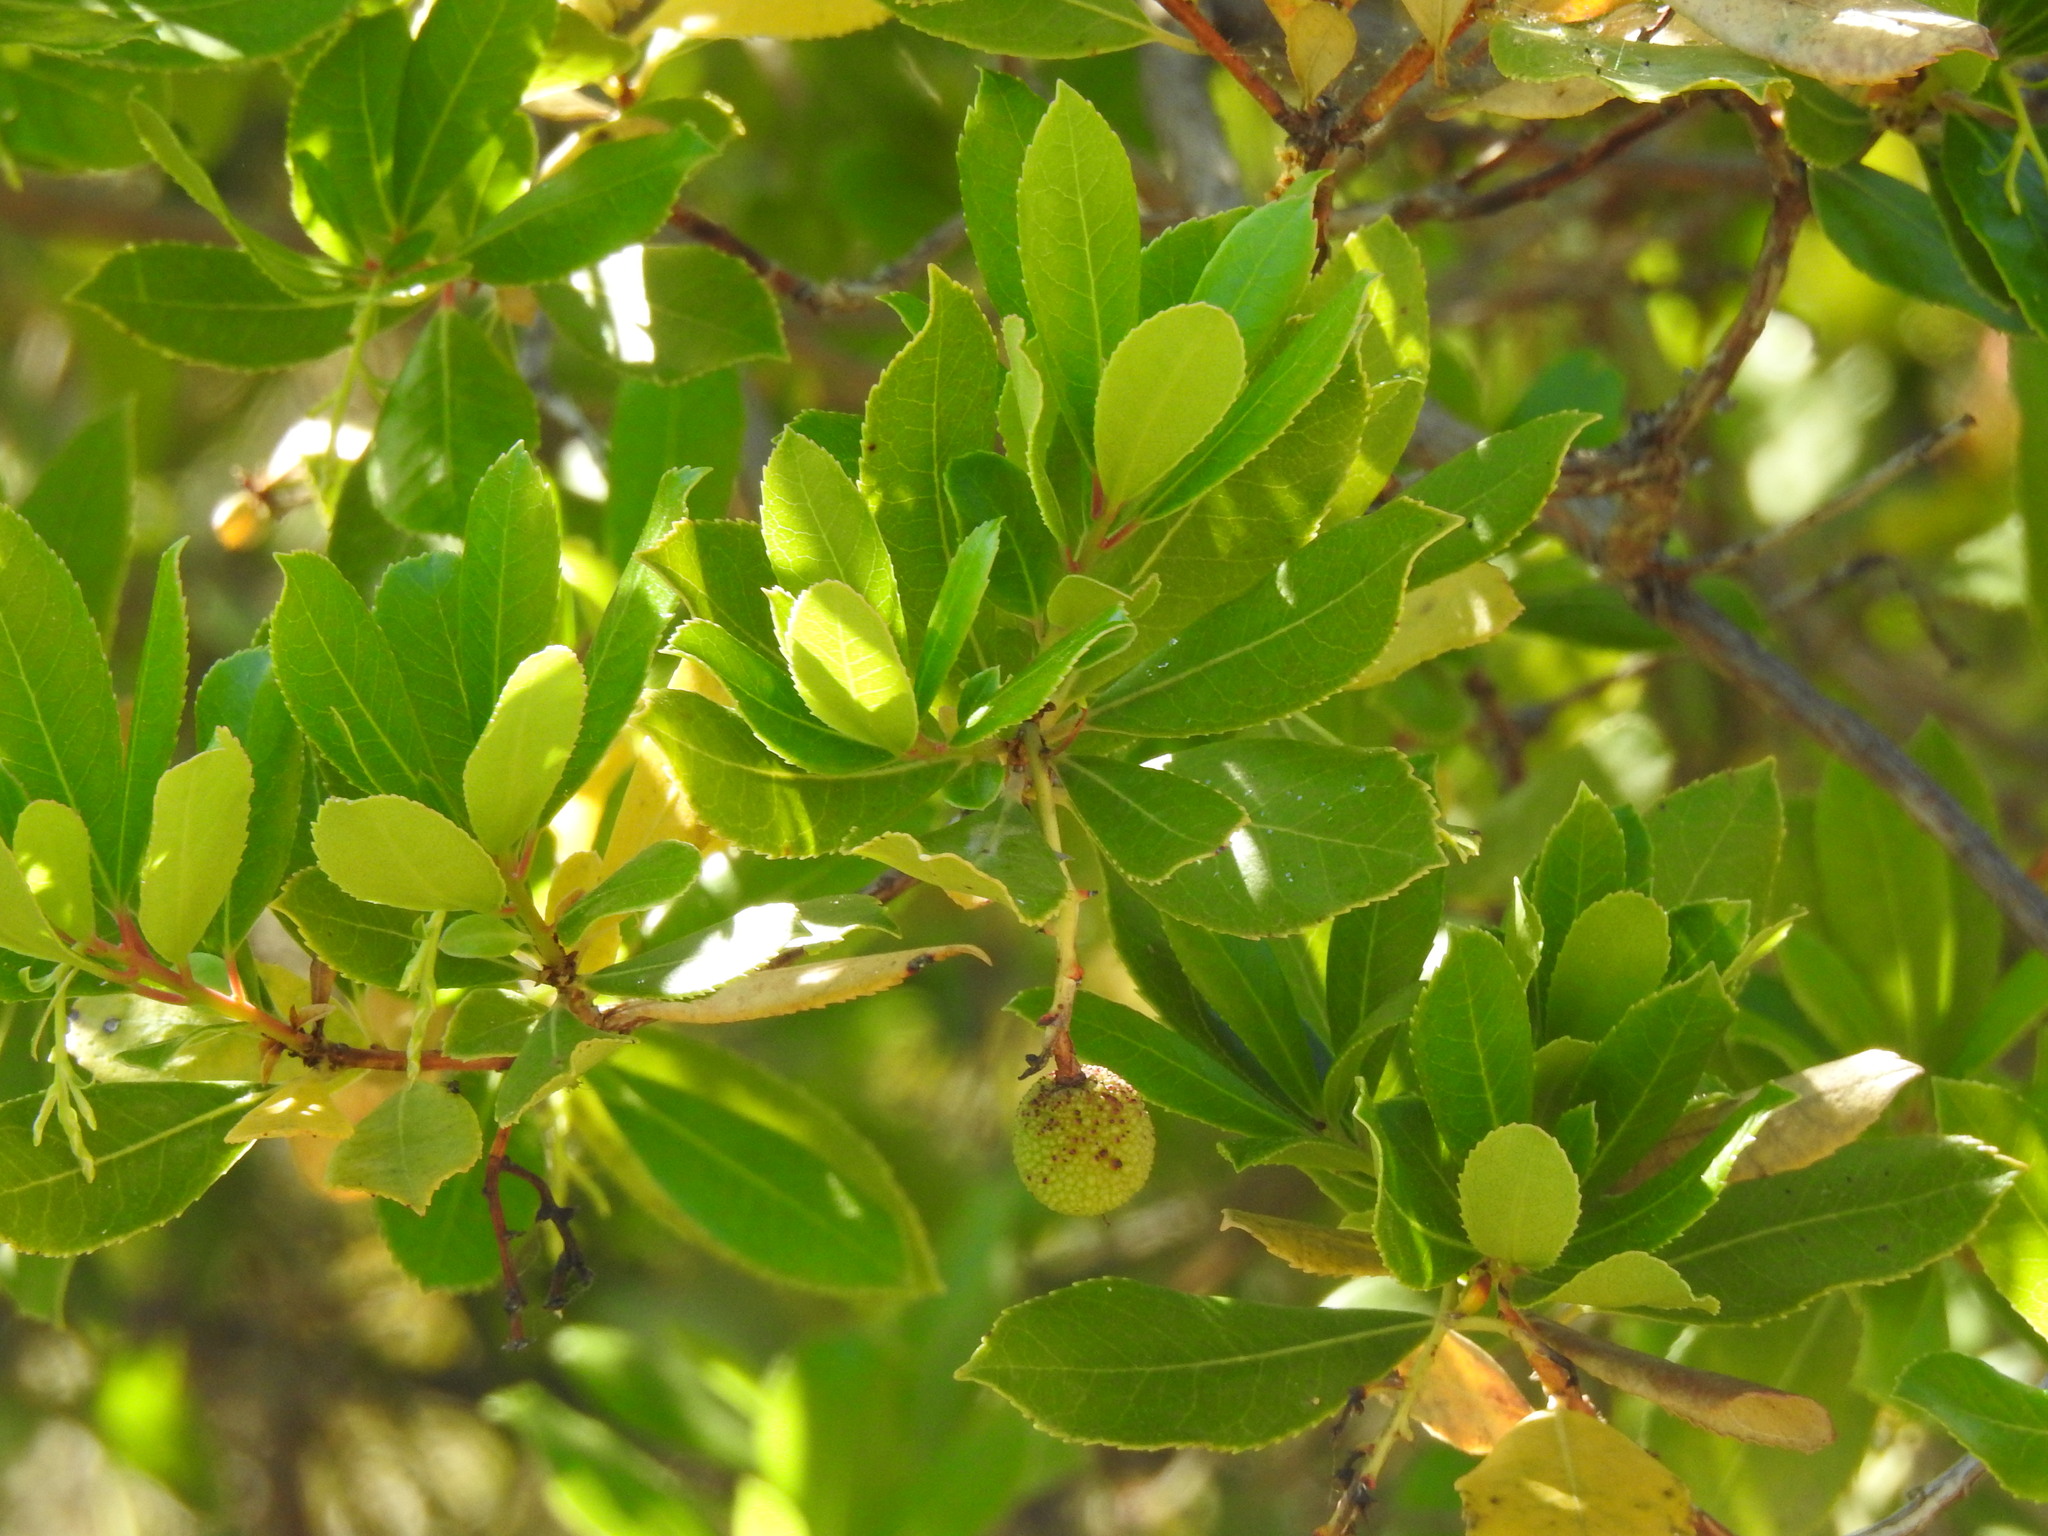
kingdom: Plantae
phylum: Tracheophyta
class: Magnoliopsida
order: Ericales
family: Ericaceae
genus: Arbutus
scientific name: Arbutus unedo
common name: Strawberry-tree
